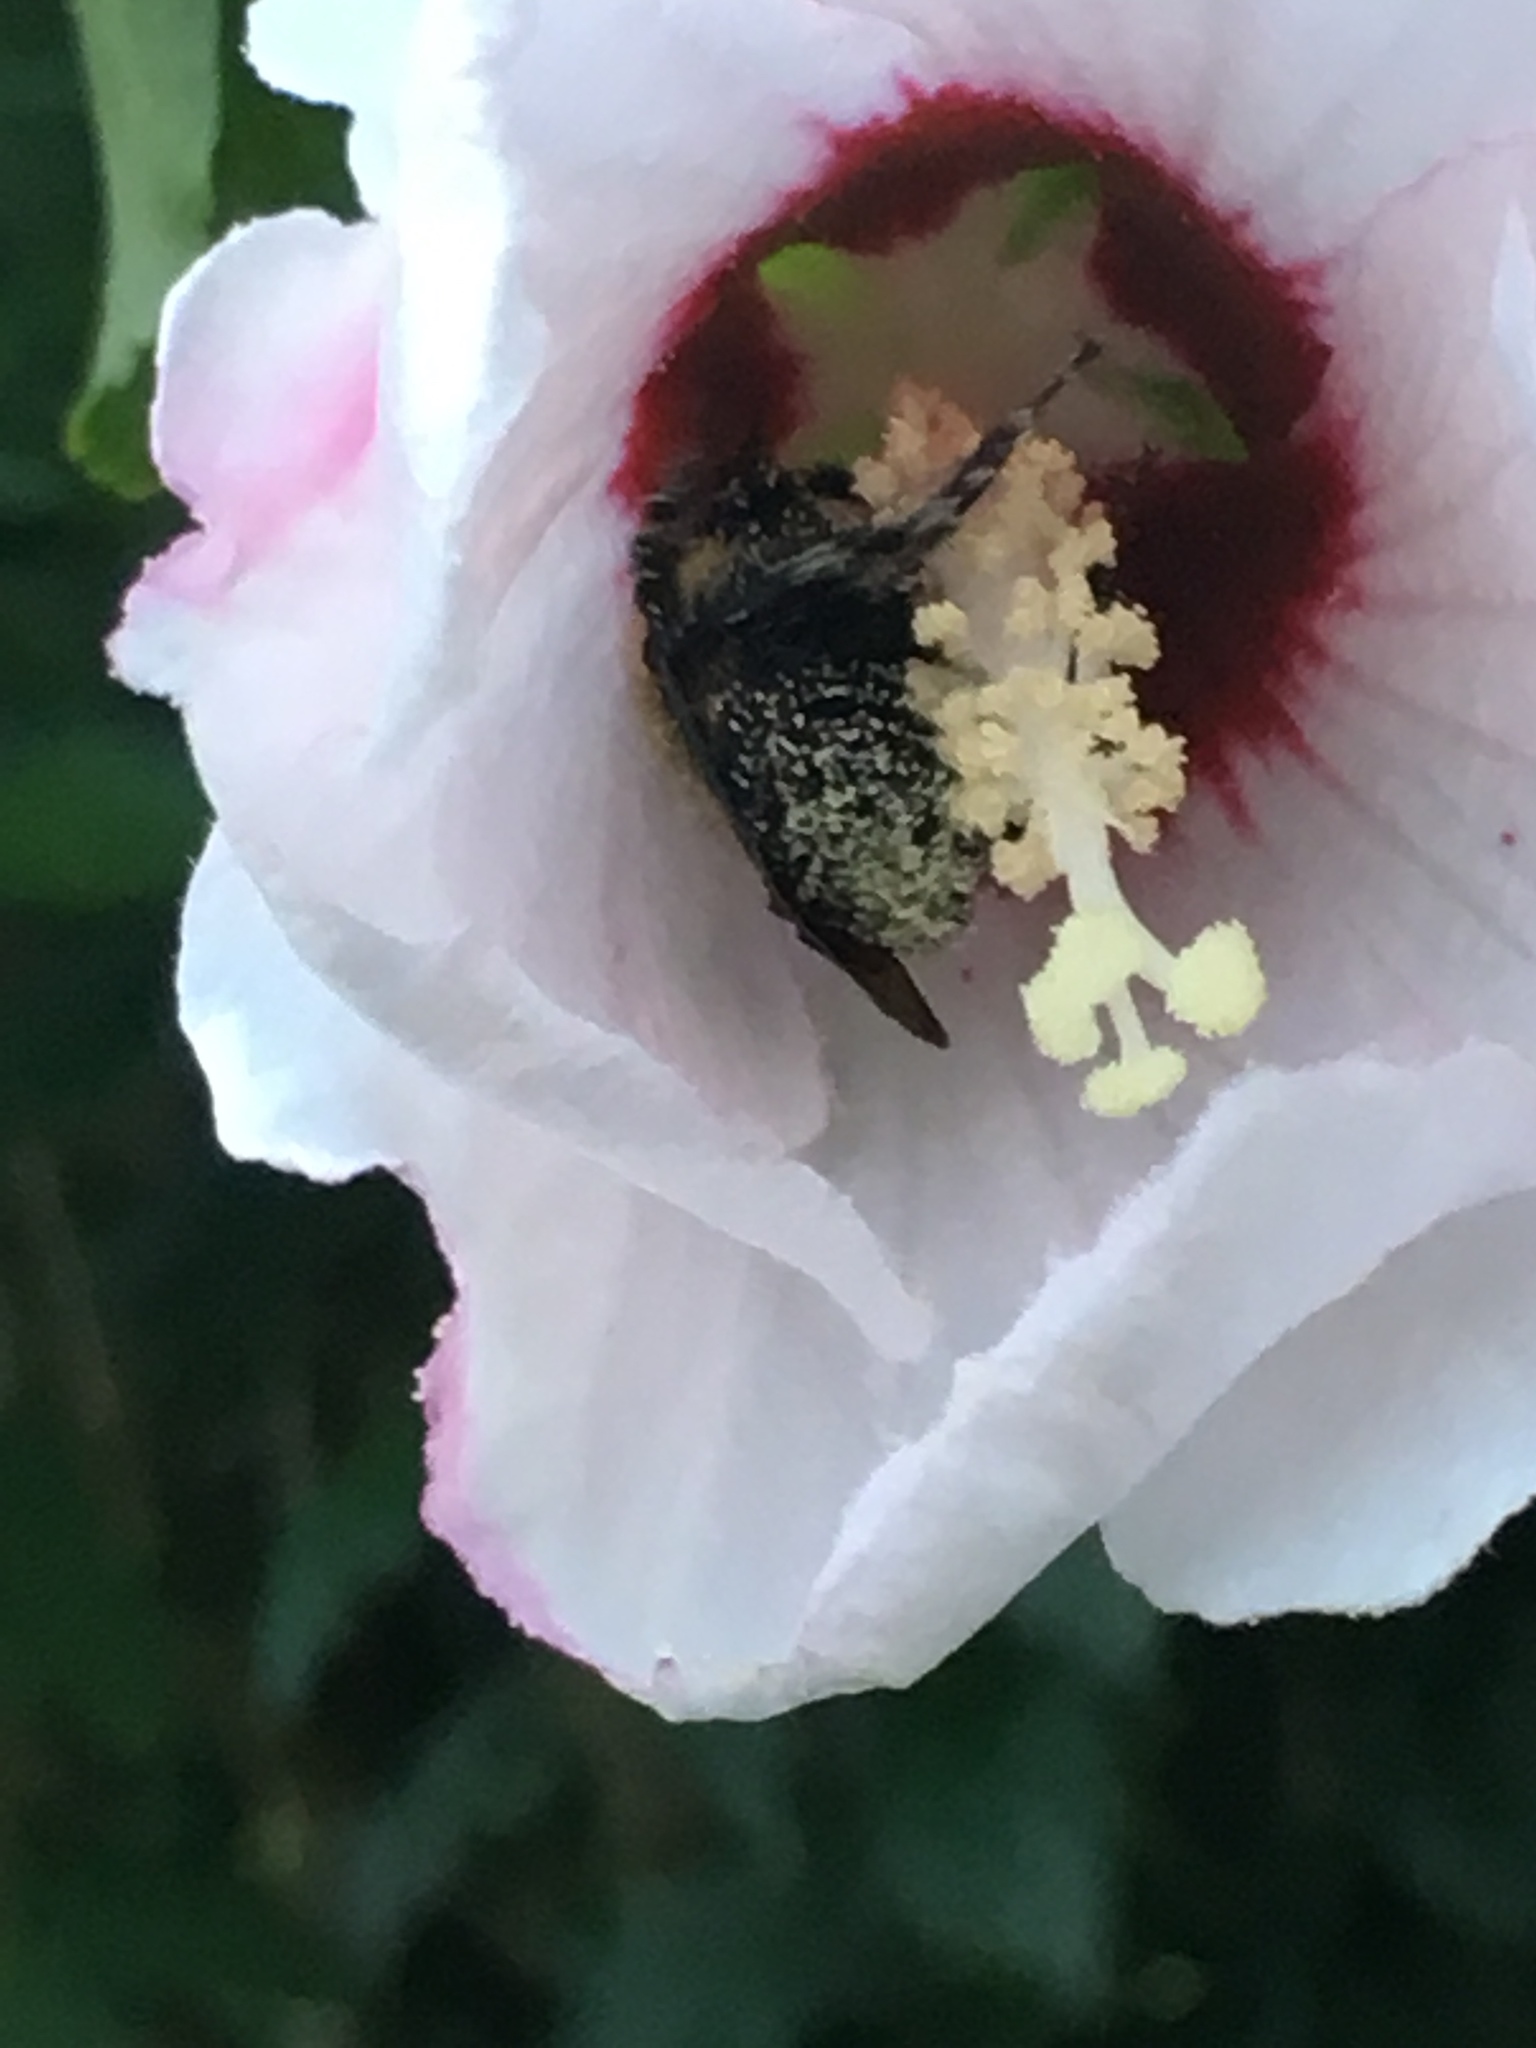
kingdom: Animalia
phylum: Arthropoda
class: Insecta
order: Hymenoptera
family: Apidae
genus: Bombus
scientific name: Bombus griseocollis
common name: Brown-belted bumble bee
